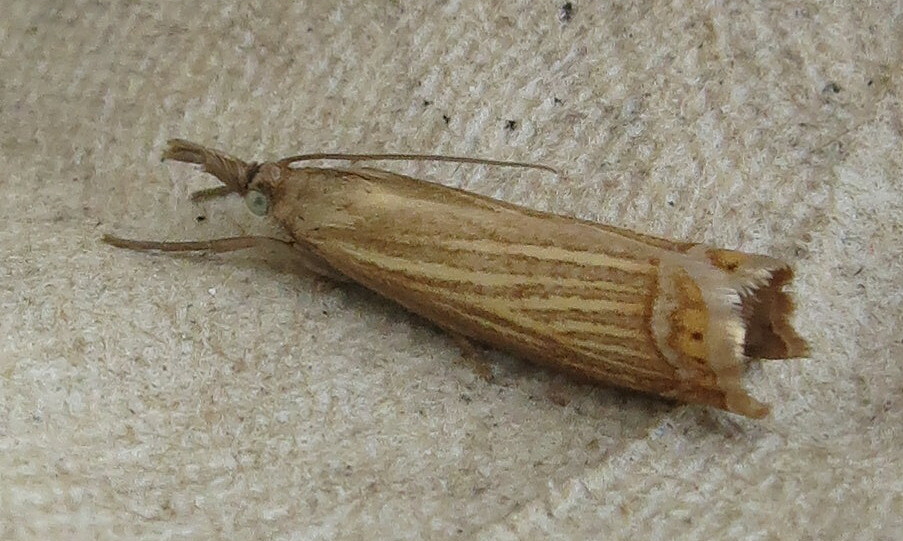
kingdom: Animalia
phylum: Arthropoda
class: Insecta
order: Lepidoptera
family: Crambidae
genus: Chrysoteuchia
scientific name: Chrysoteuchia culmella
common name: Garden grass-veneer
